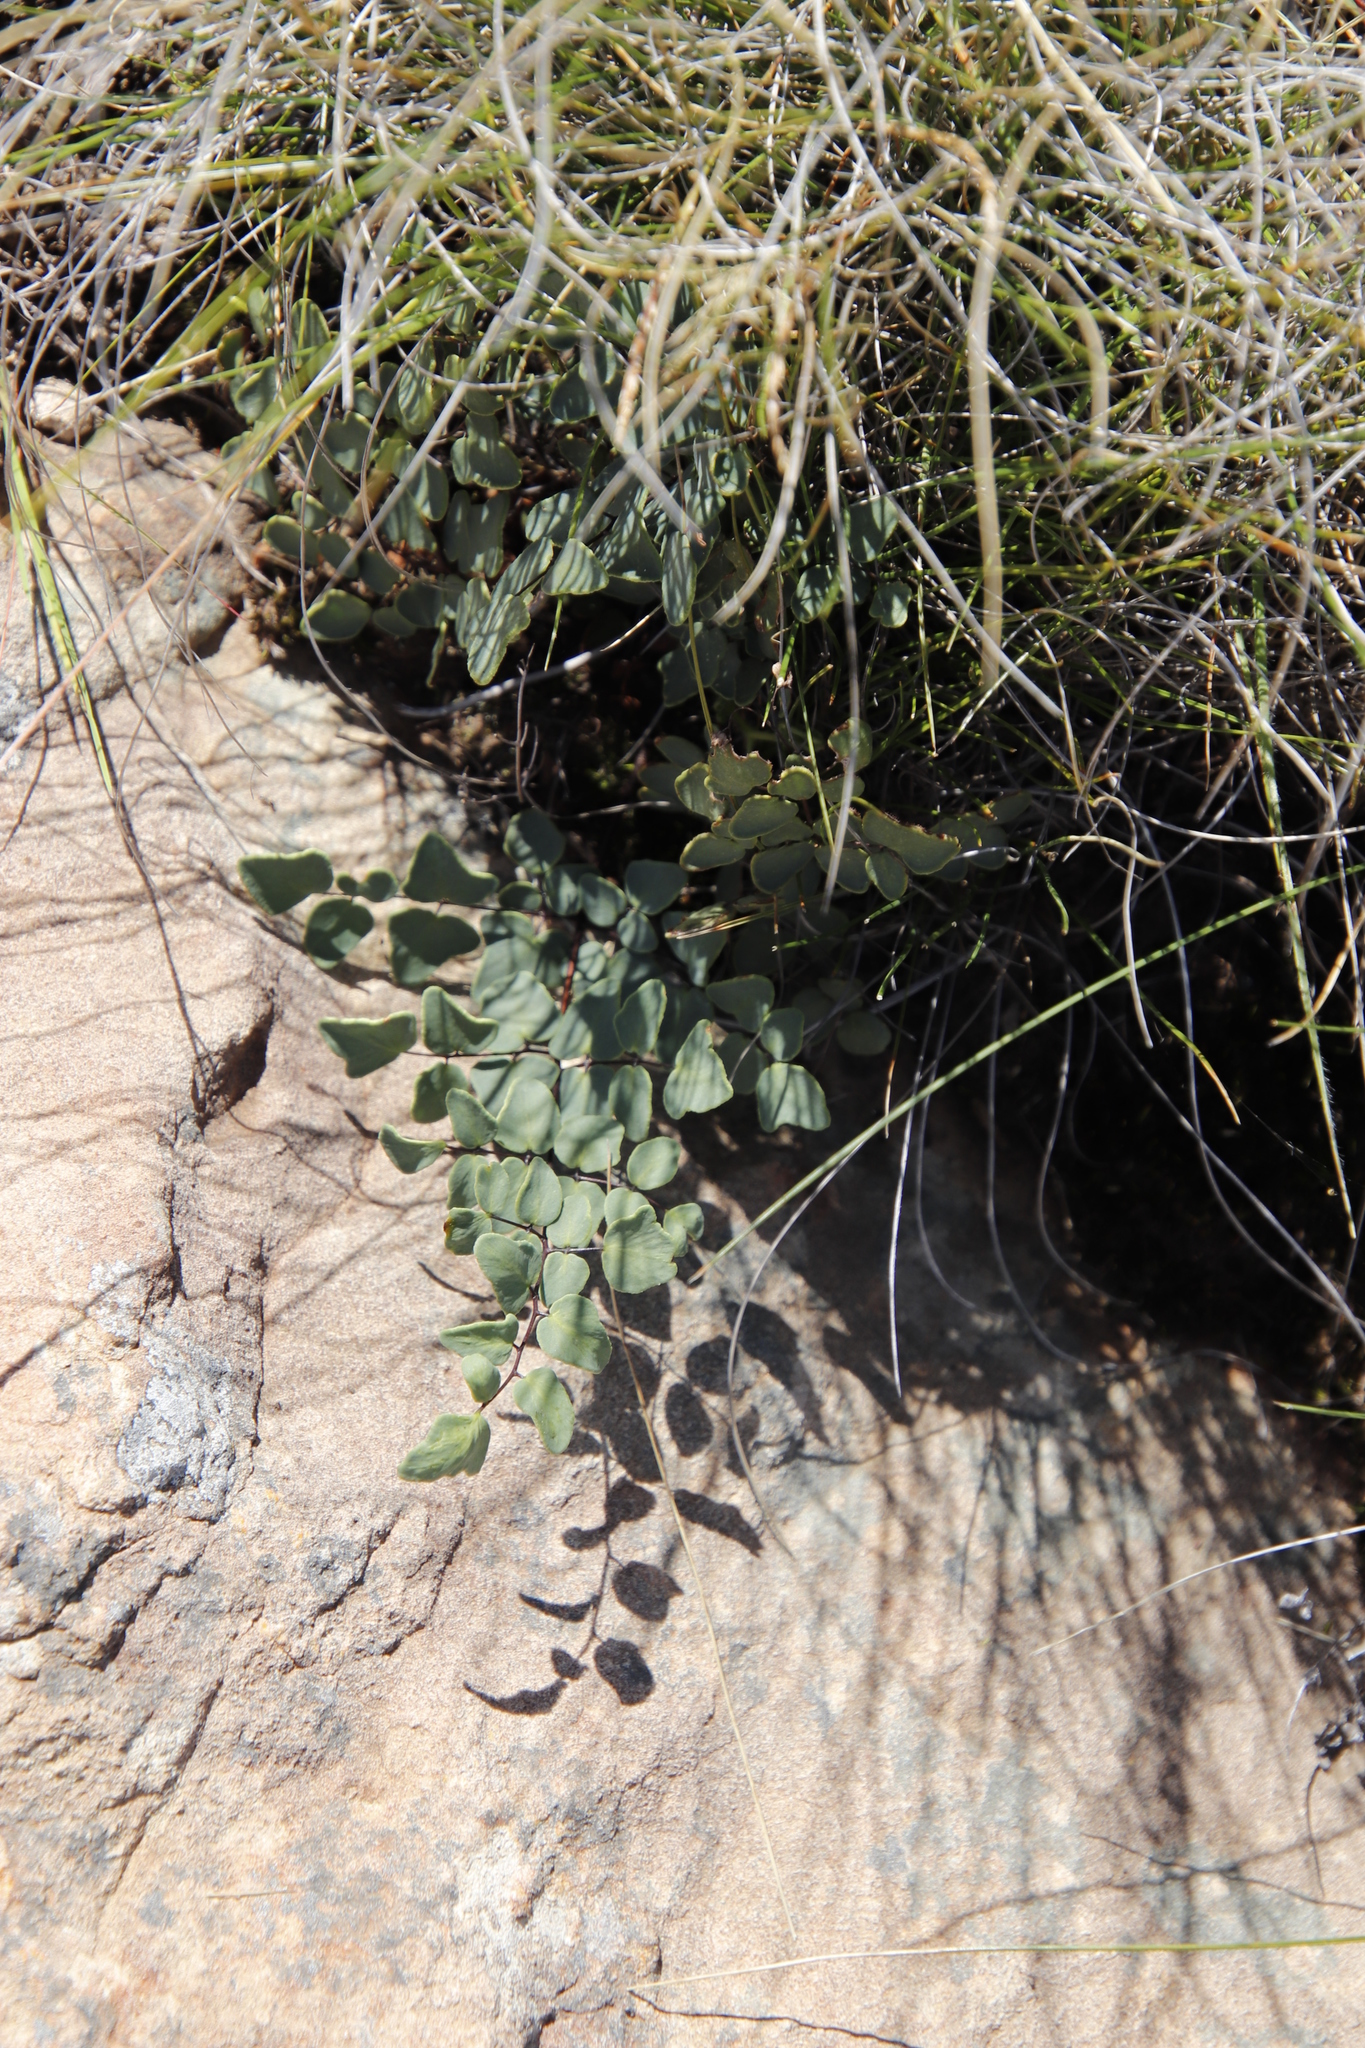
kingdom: Plantae
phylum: Tracheophyta
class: Polypodiopsida
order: Polypodiales
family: Pteridaceae
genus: Pellaea
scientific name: Pellaea calomelanos
